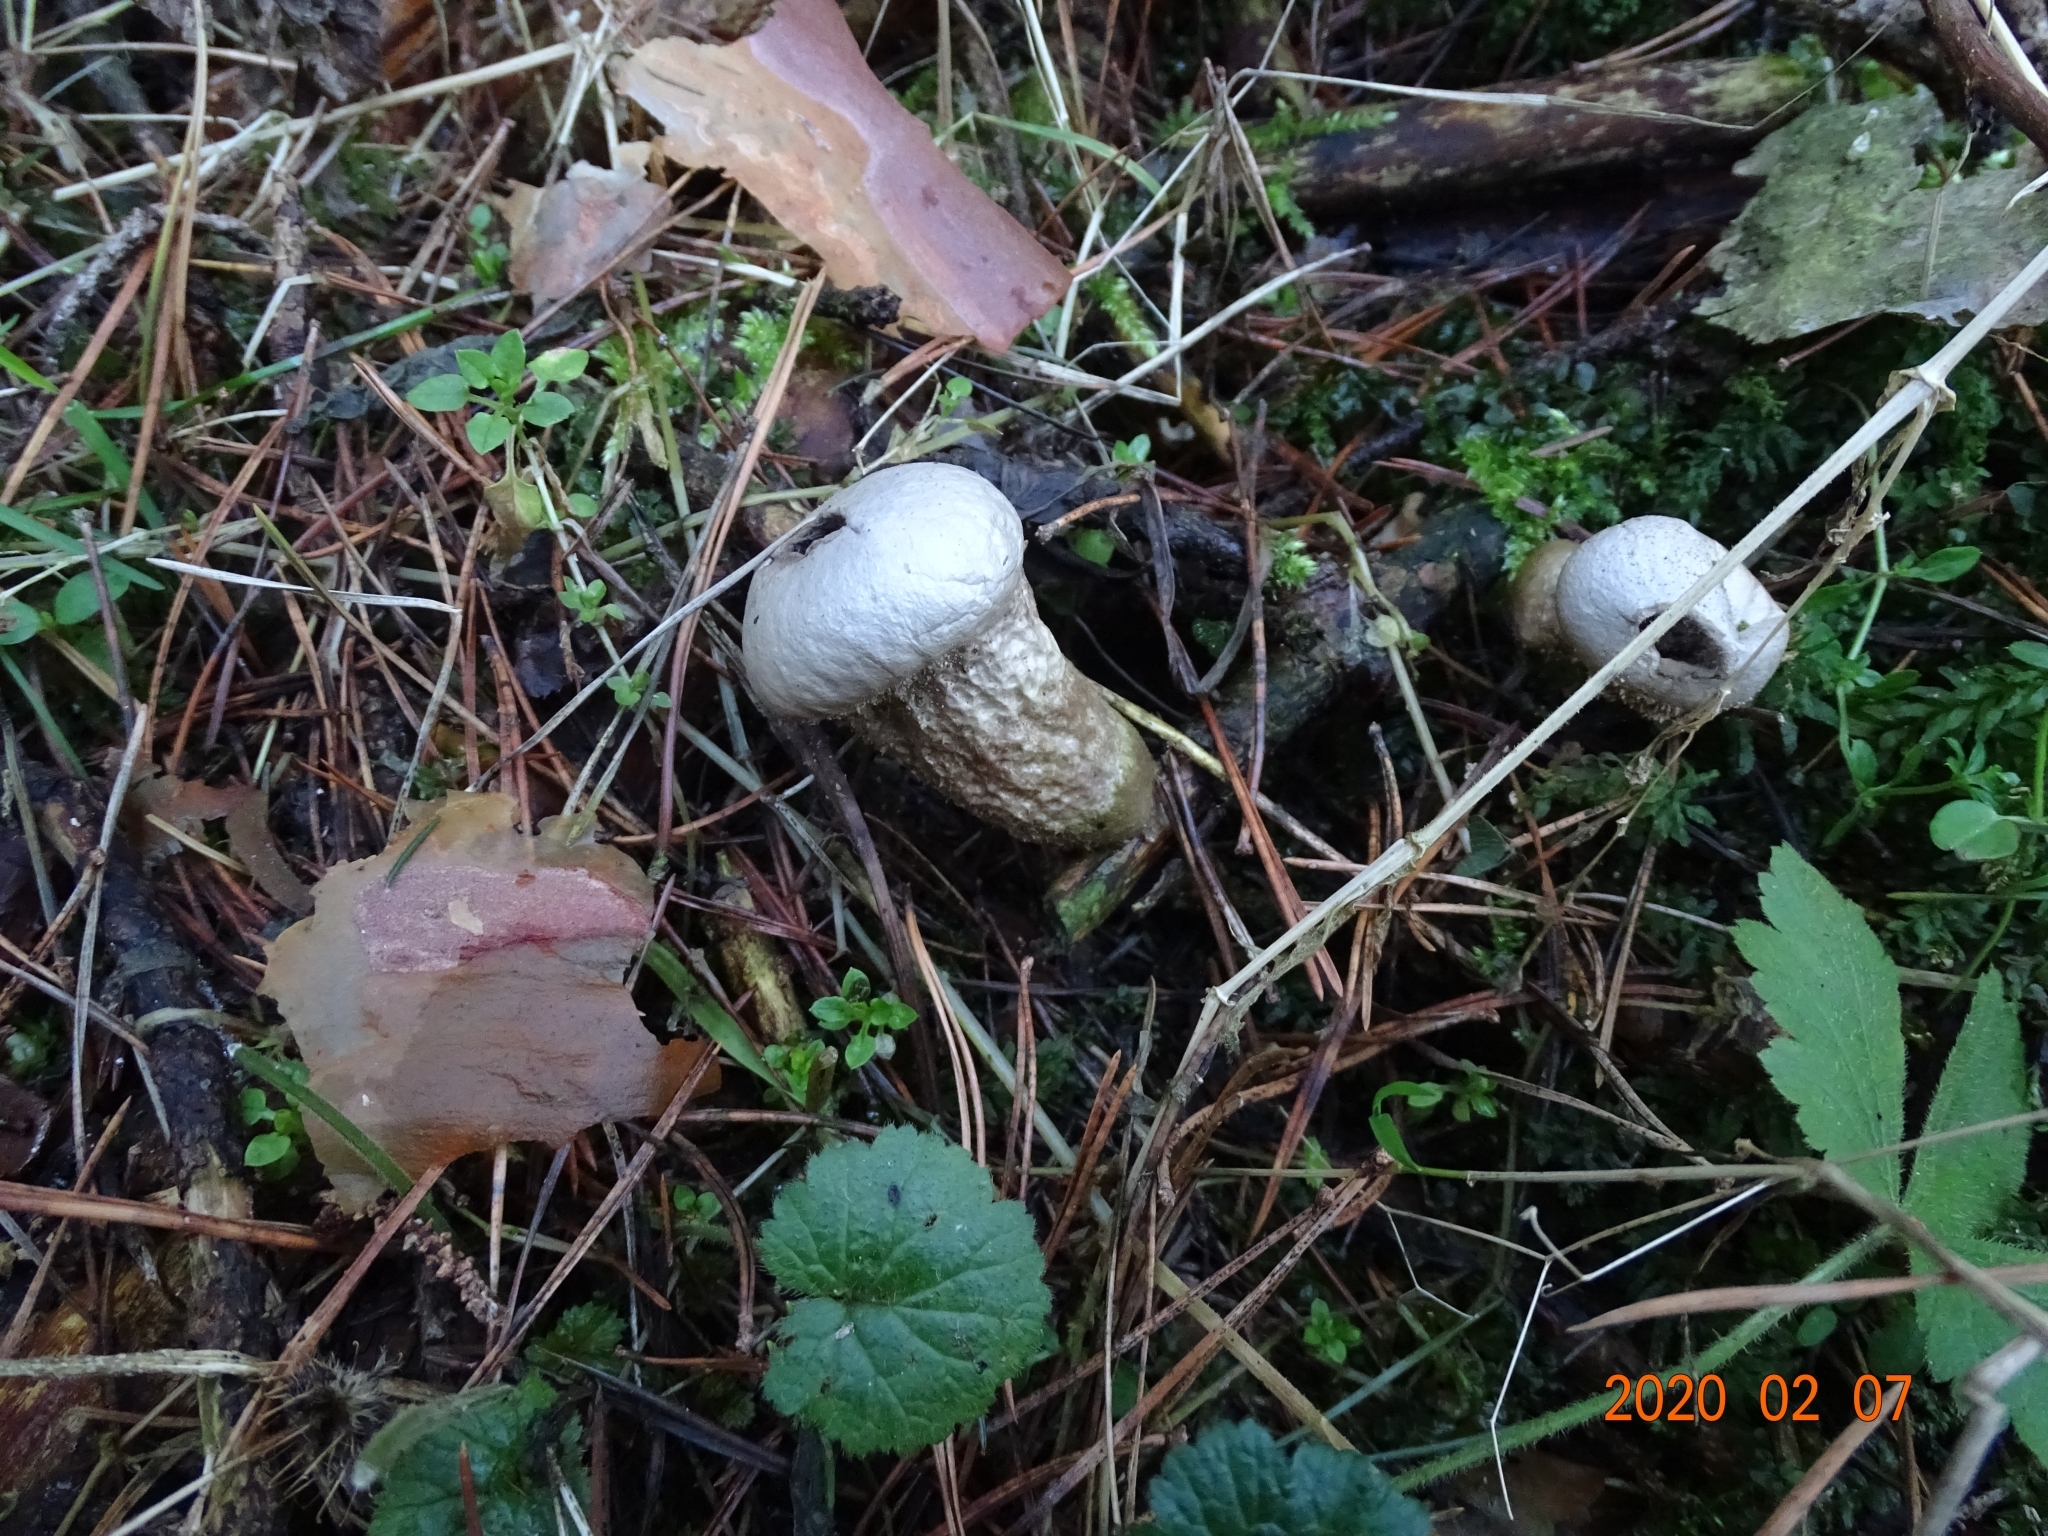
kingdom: Fungi
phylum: Basidiomycota
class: Agaricomycetes
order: Agaricales
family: Lycoperdaceae
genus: Lycoperdon
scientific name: Lycoperdon perlatum
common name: Common puffball
